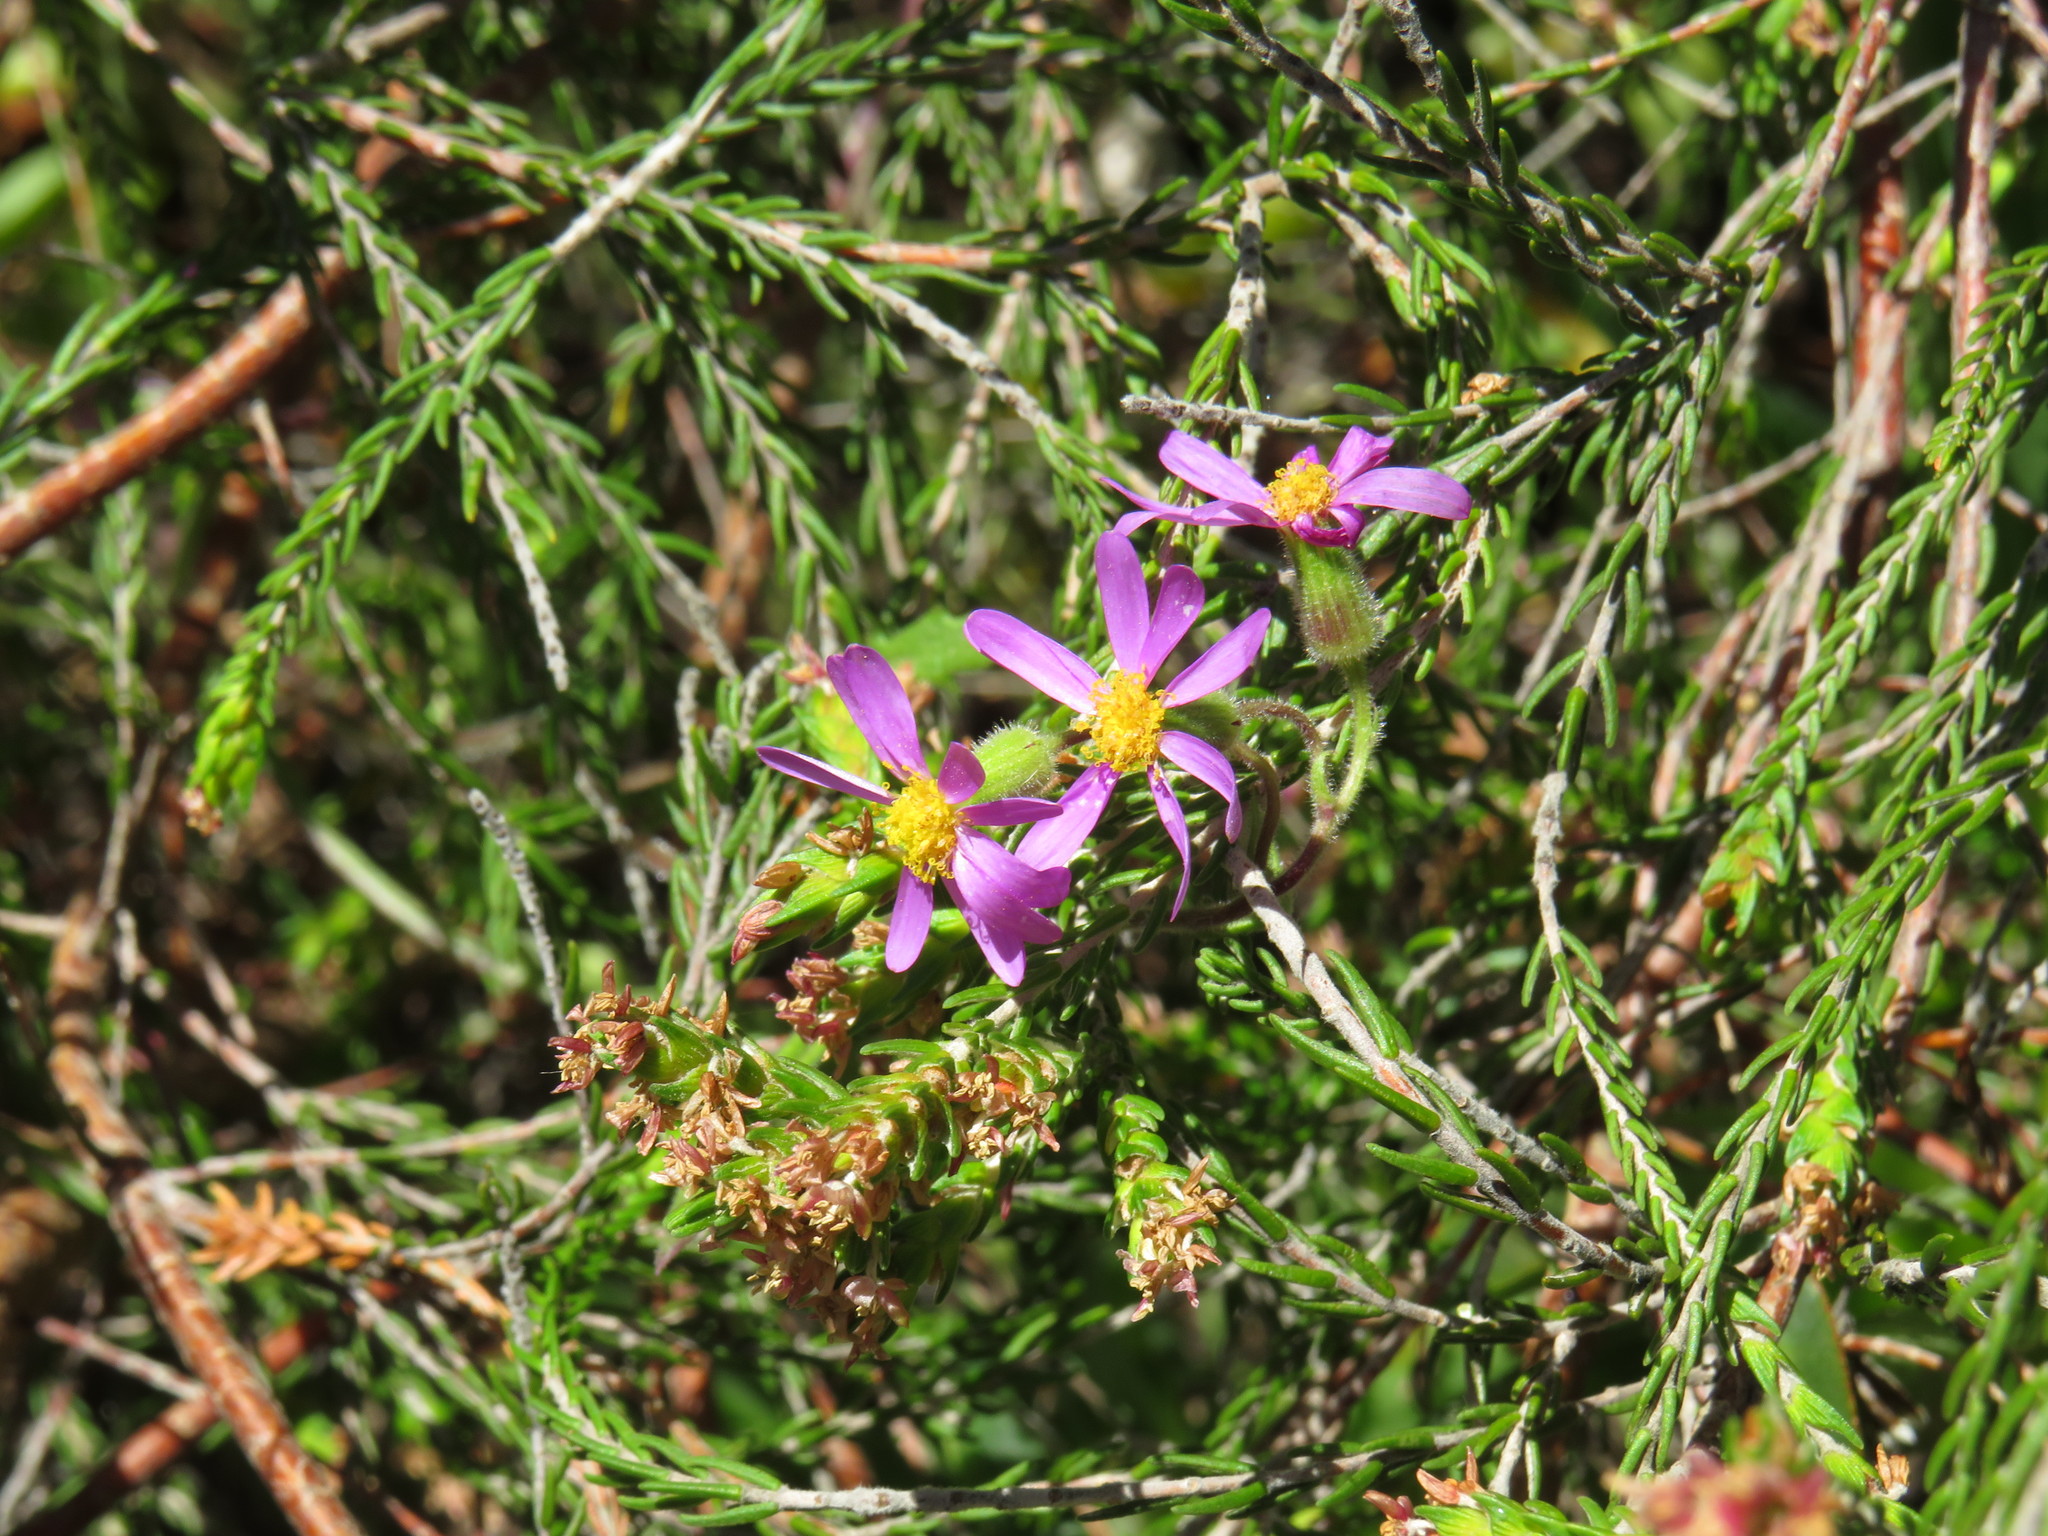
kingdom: Plantae
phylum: Tracheophyta
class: Magnoliopsida
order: Asterales
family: Asteraceae
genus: Senecio
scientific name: Senecio arenarius
